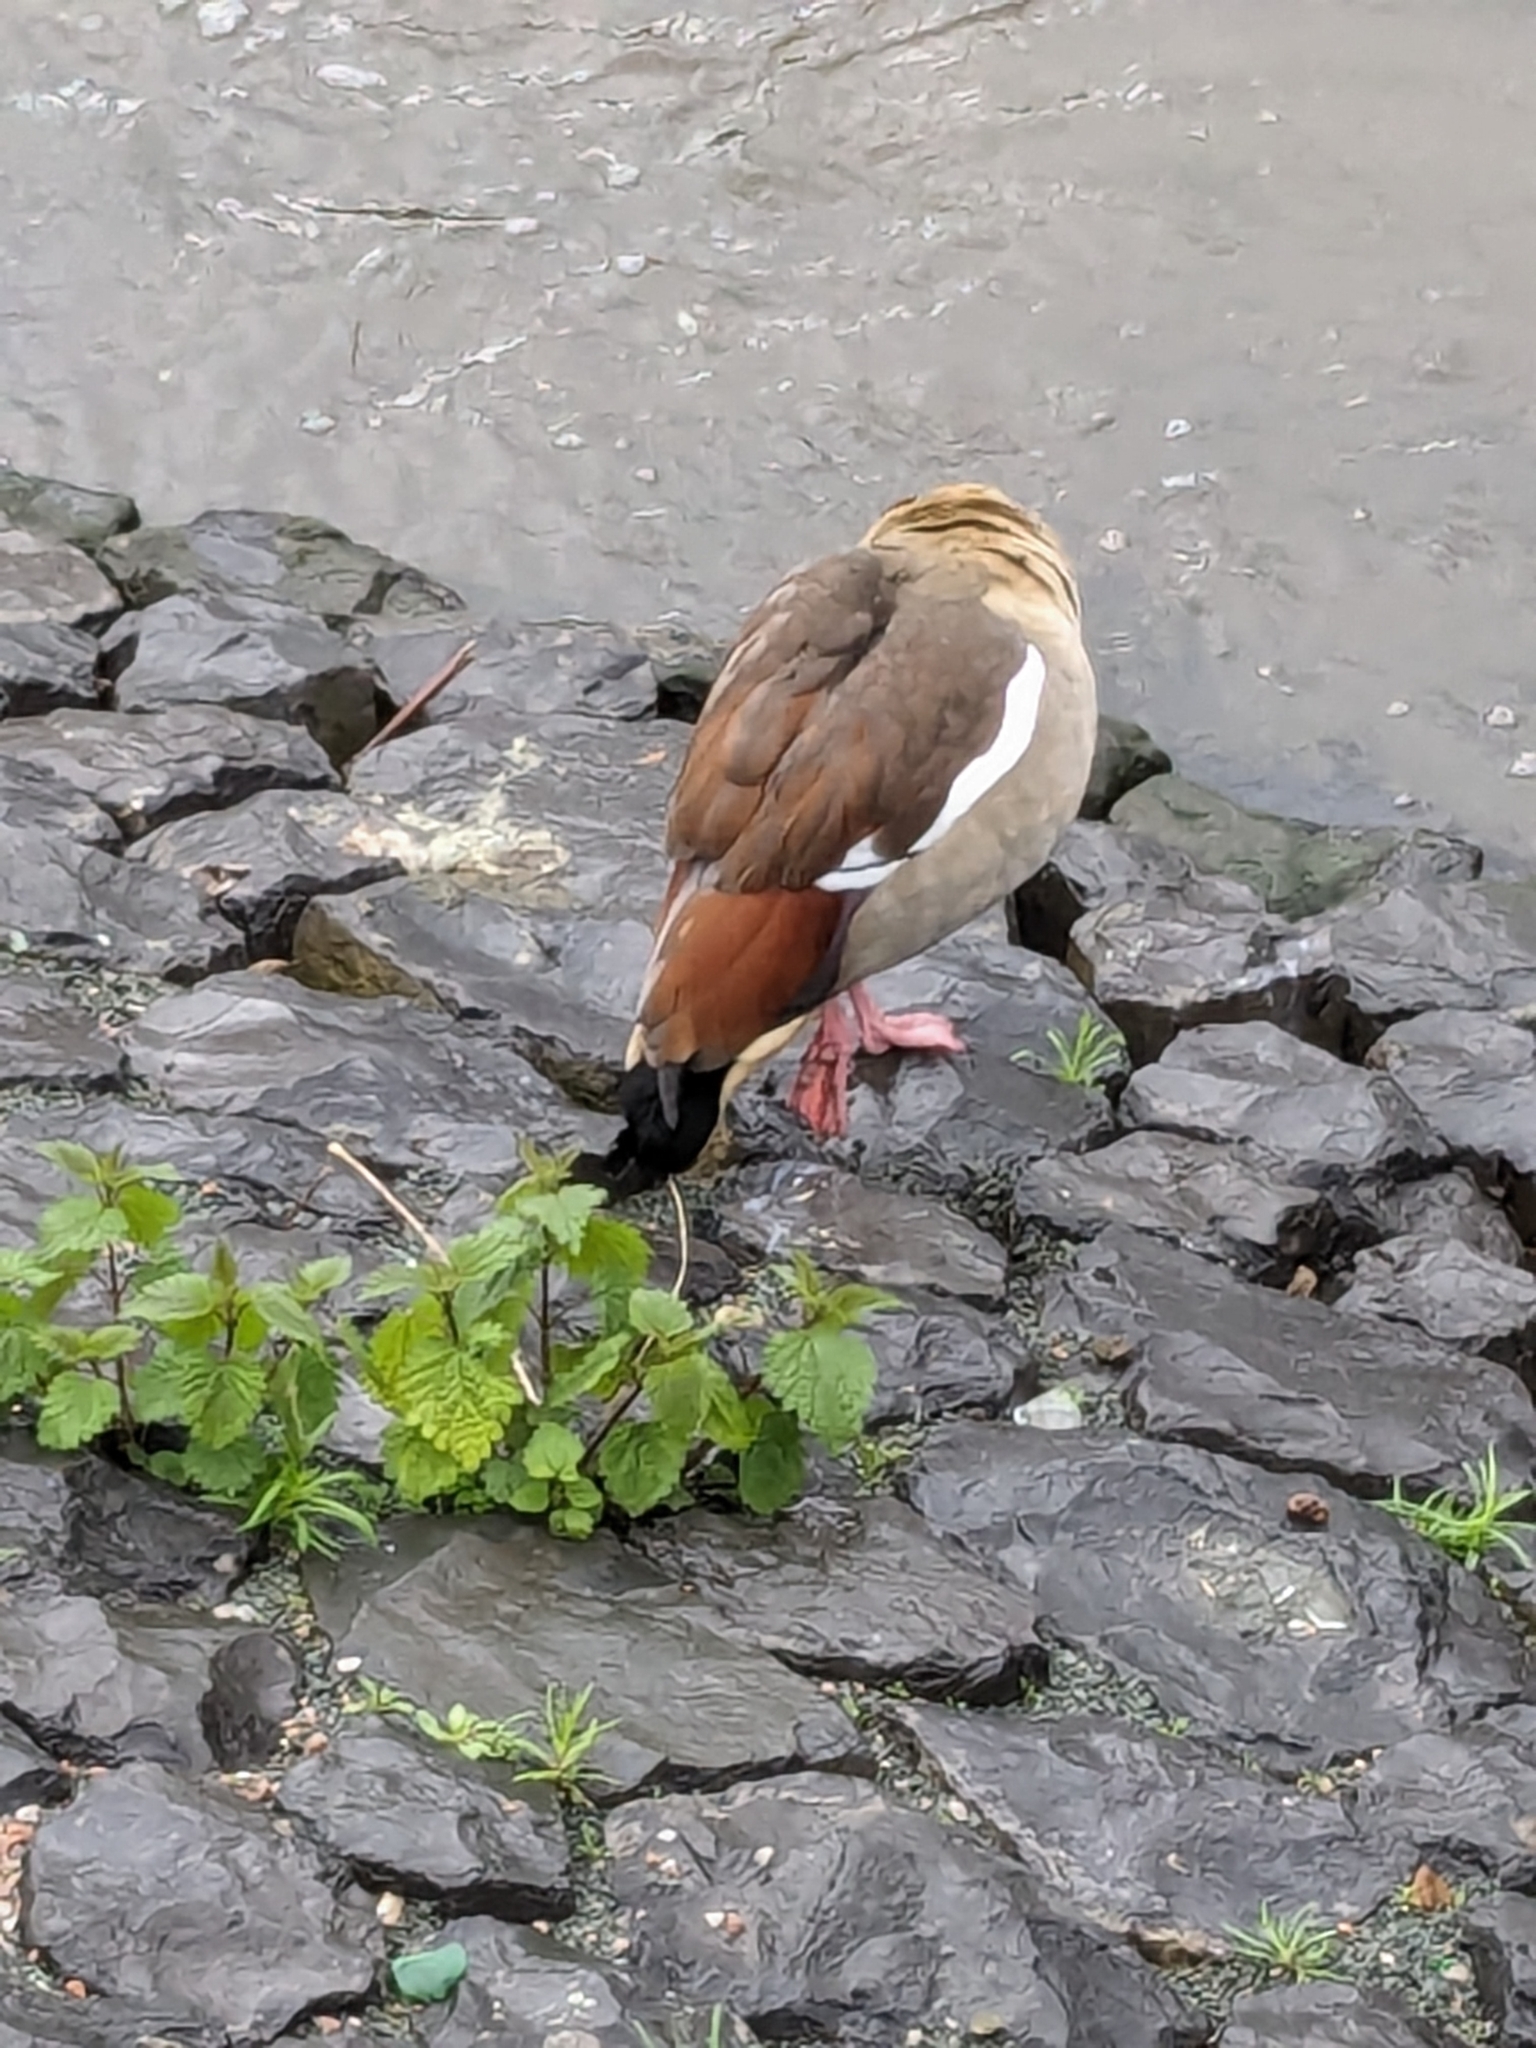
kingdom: Animalia
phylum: Chordata
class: Aves
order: Anseriformes
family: Anatidae
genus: Alopochen
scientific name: Alopochen aegyptiaca
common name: Egyptian goose
